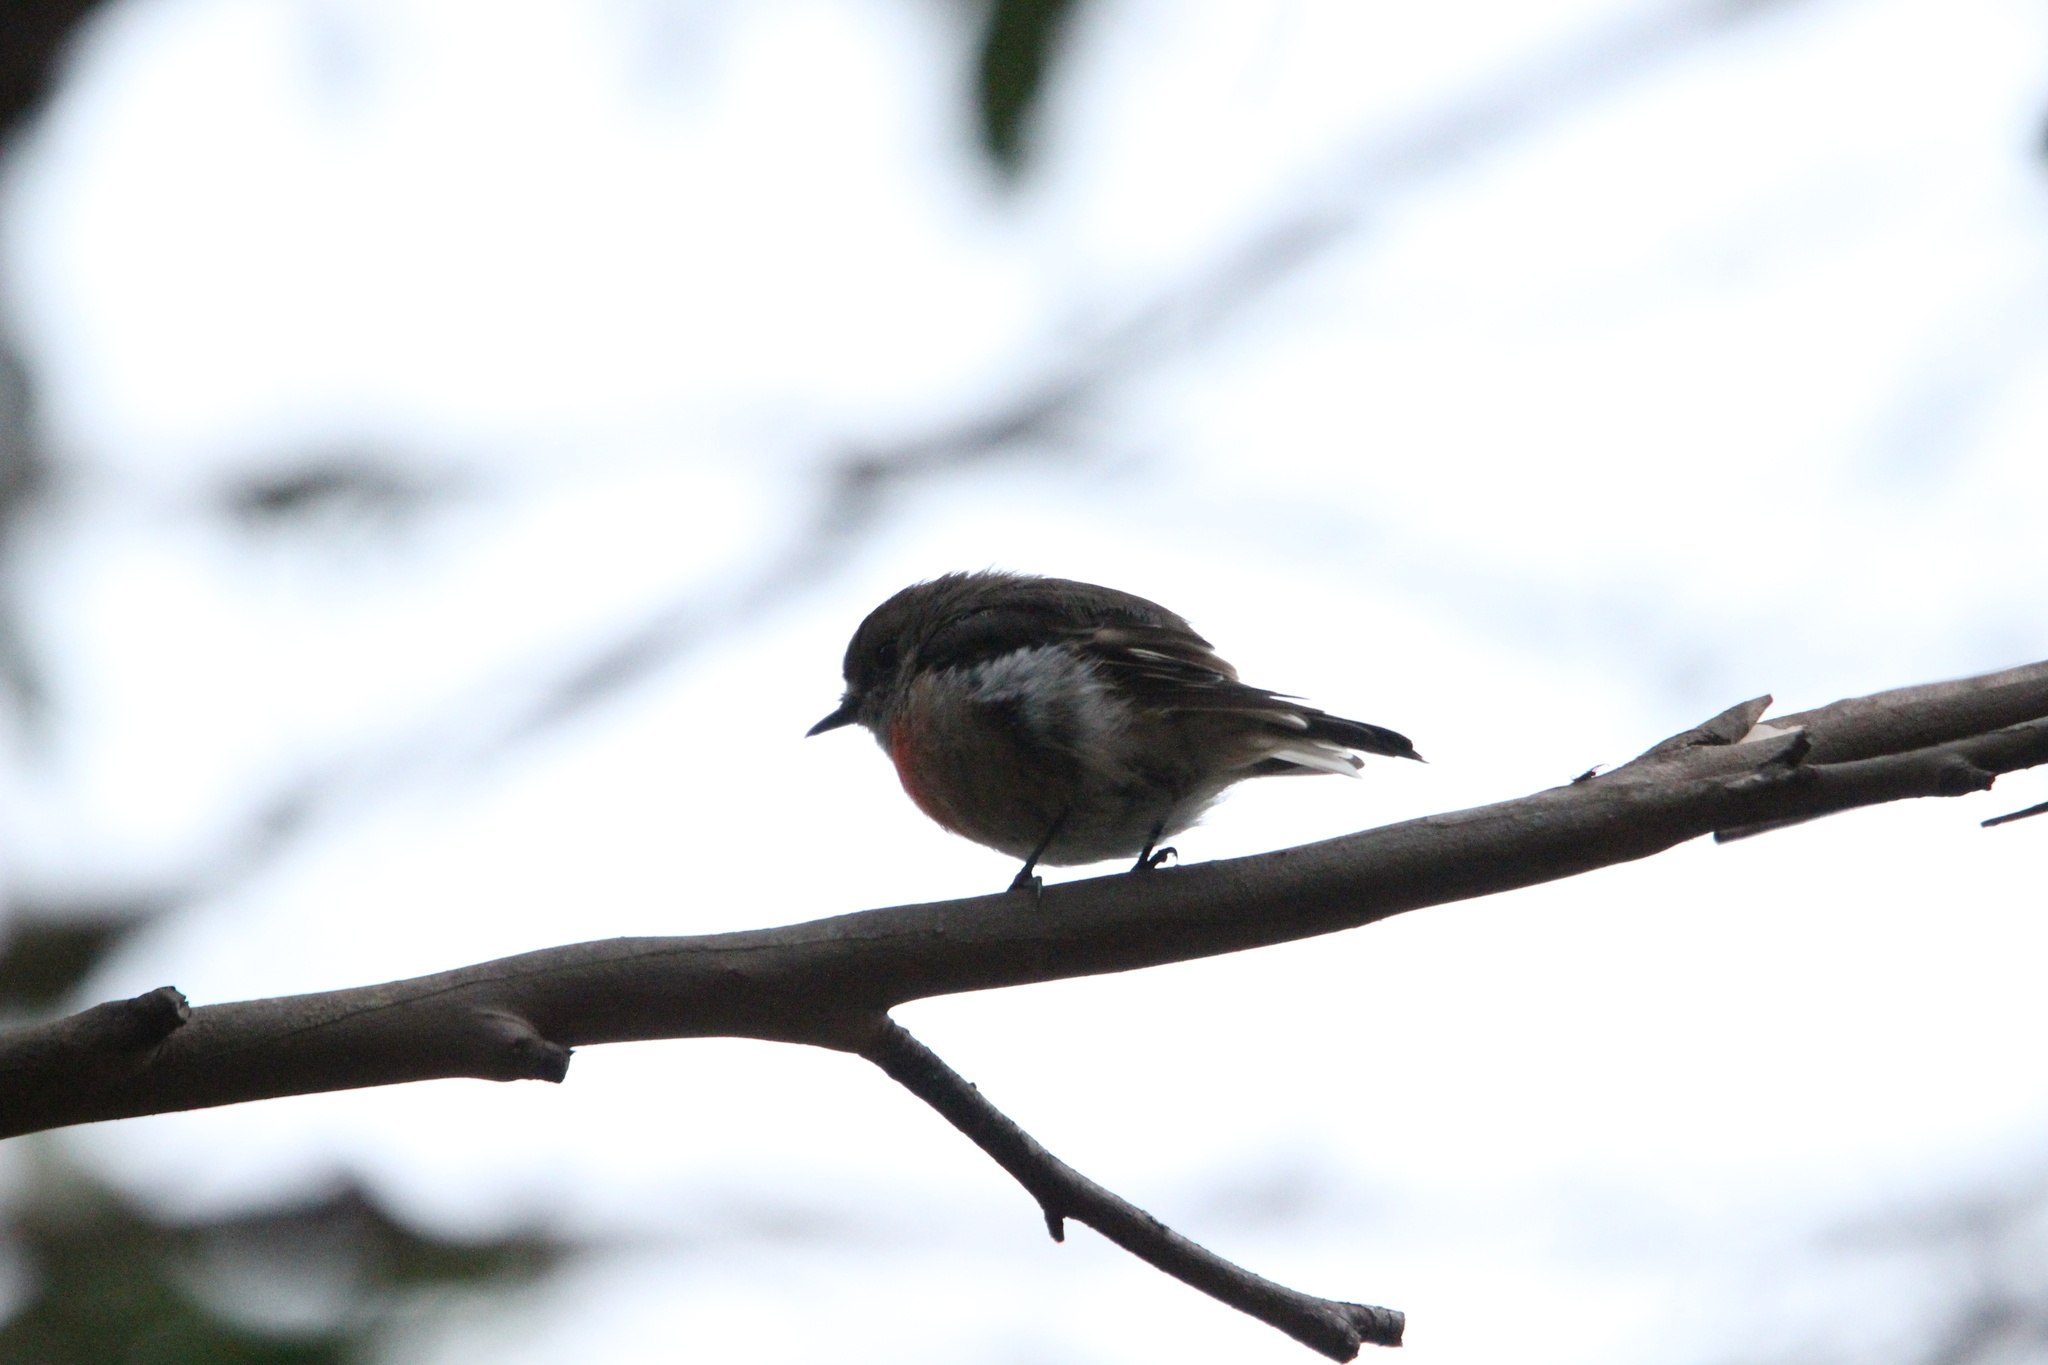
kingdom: Animalia
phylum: Chordata
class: Aves
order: Passeriformes
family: Petroicidae
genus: Petroica
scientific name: Petroica boodang
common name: Scarlet robin
